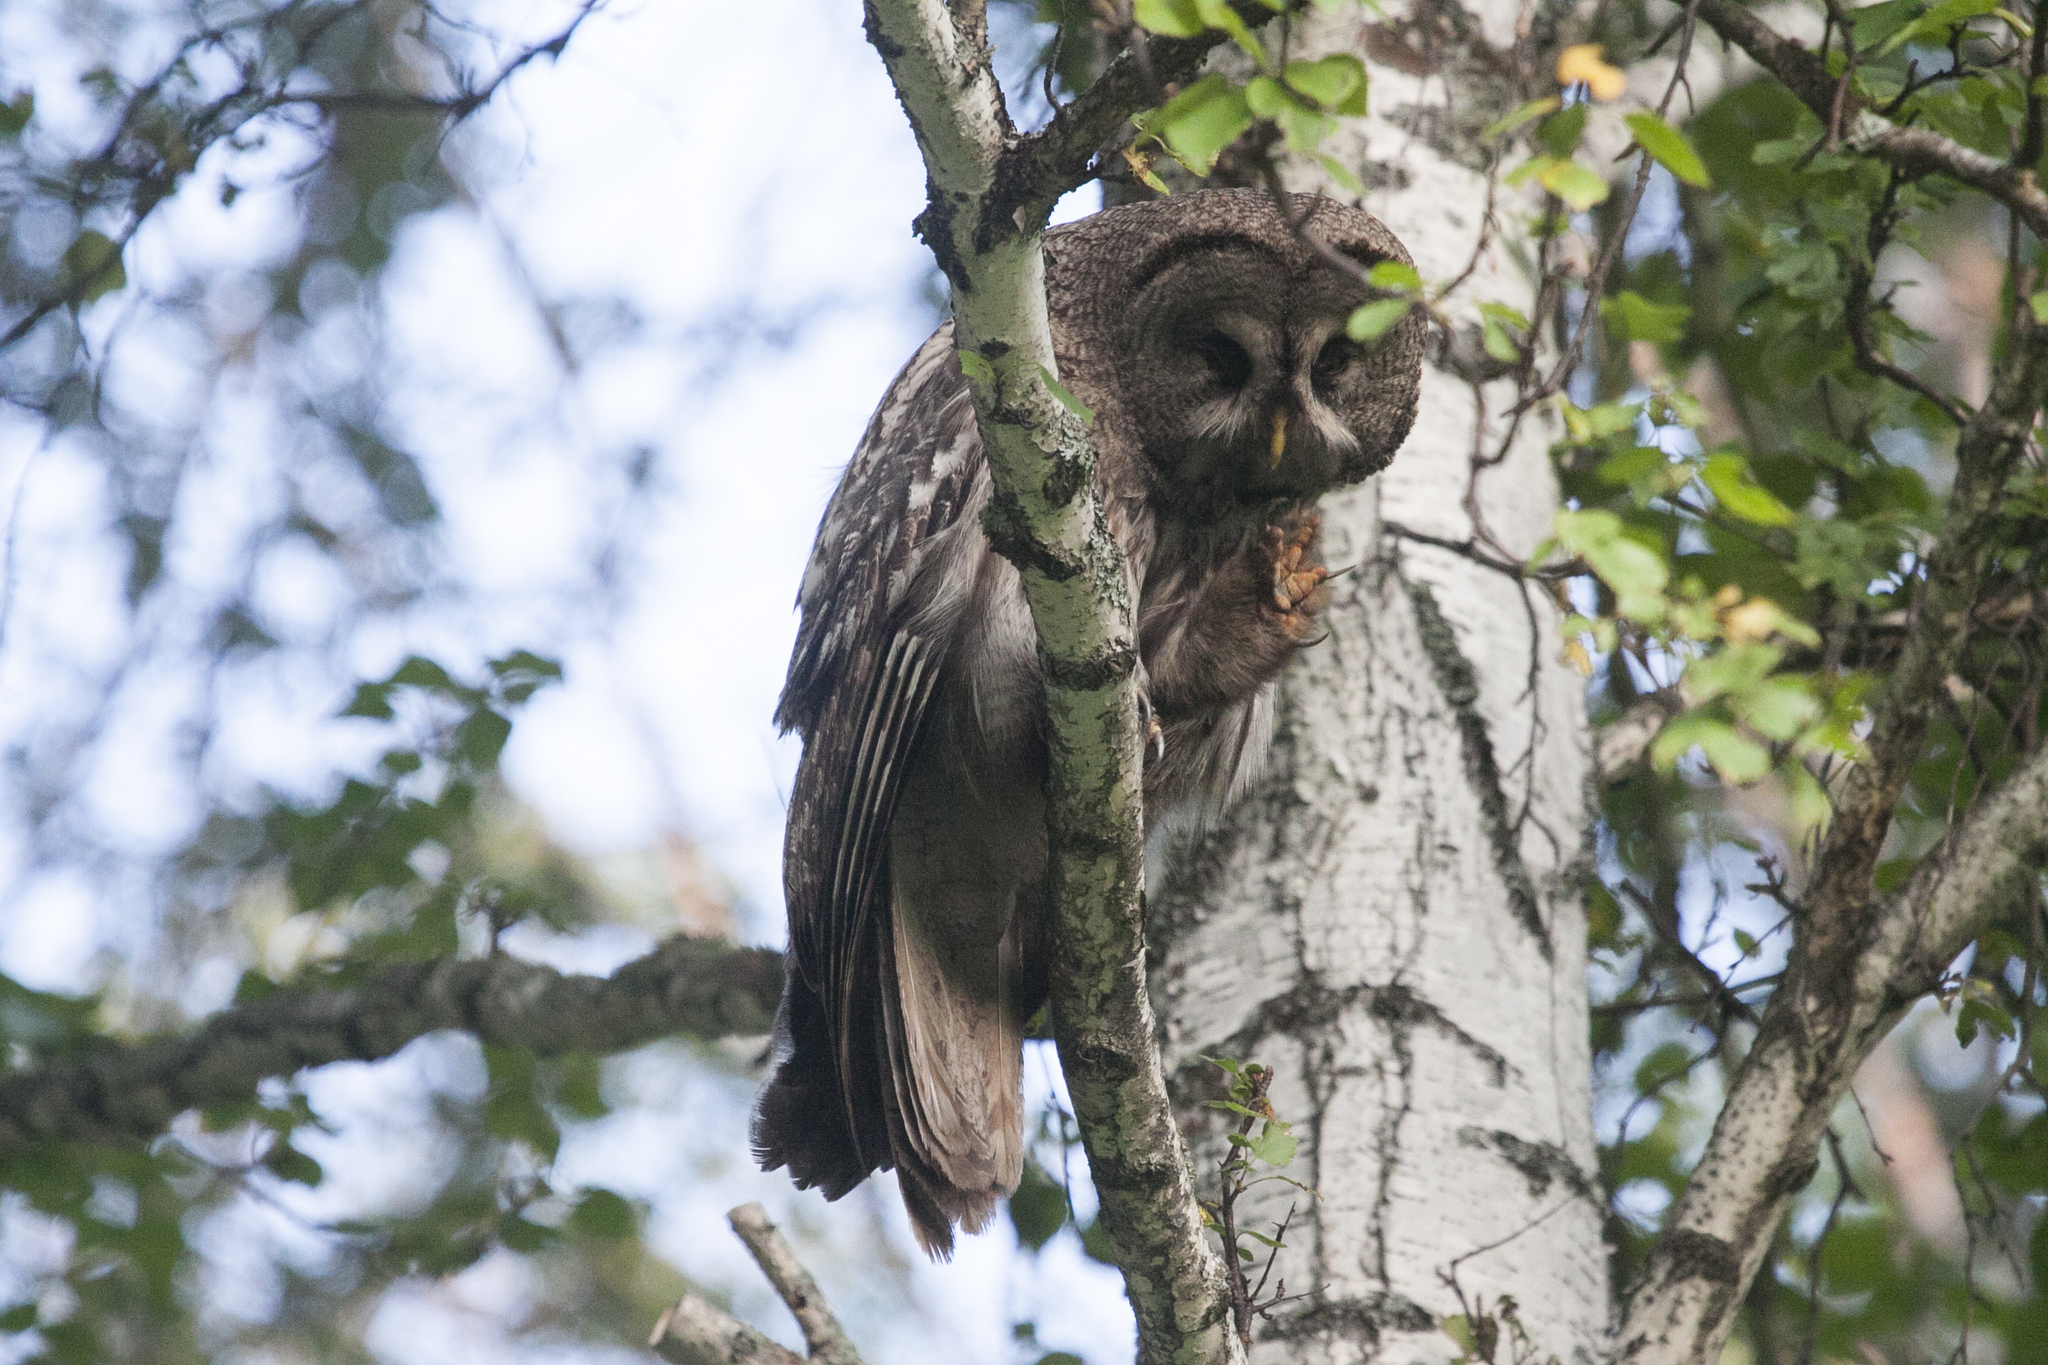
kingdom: Animalia
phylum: Chordata
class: Aves
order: Strigiformes
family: Strigidae
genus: Strix
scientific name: Strix nebulosa
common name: Great grey owl
